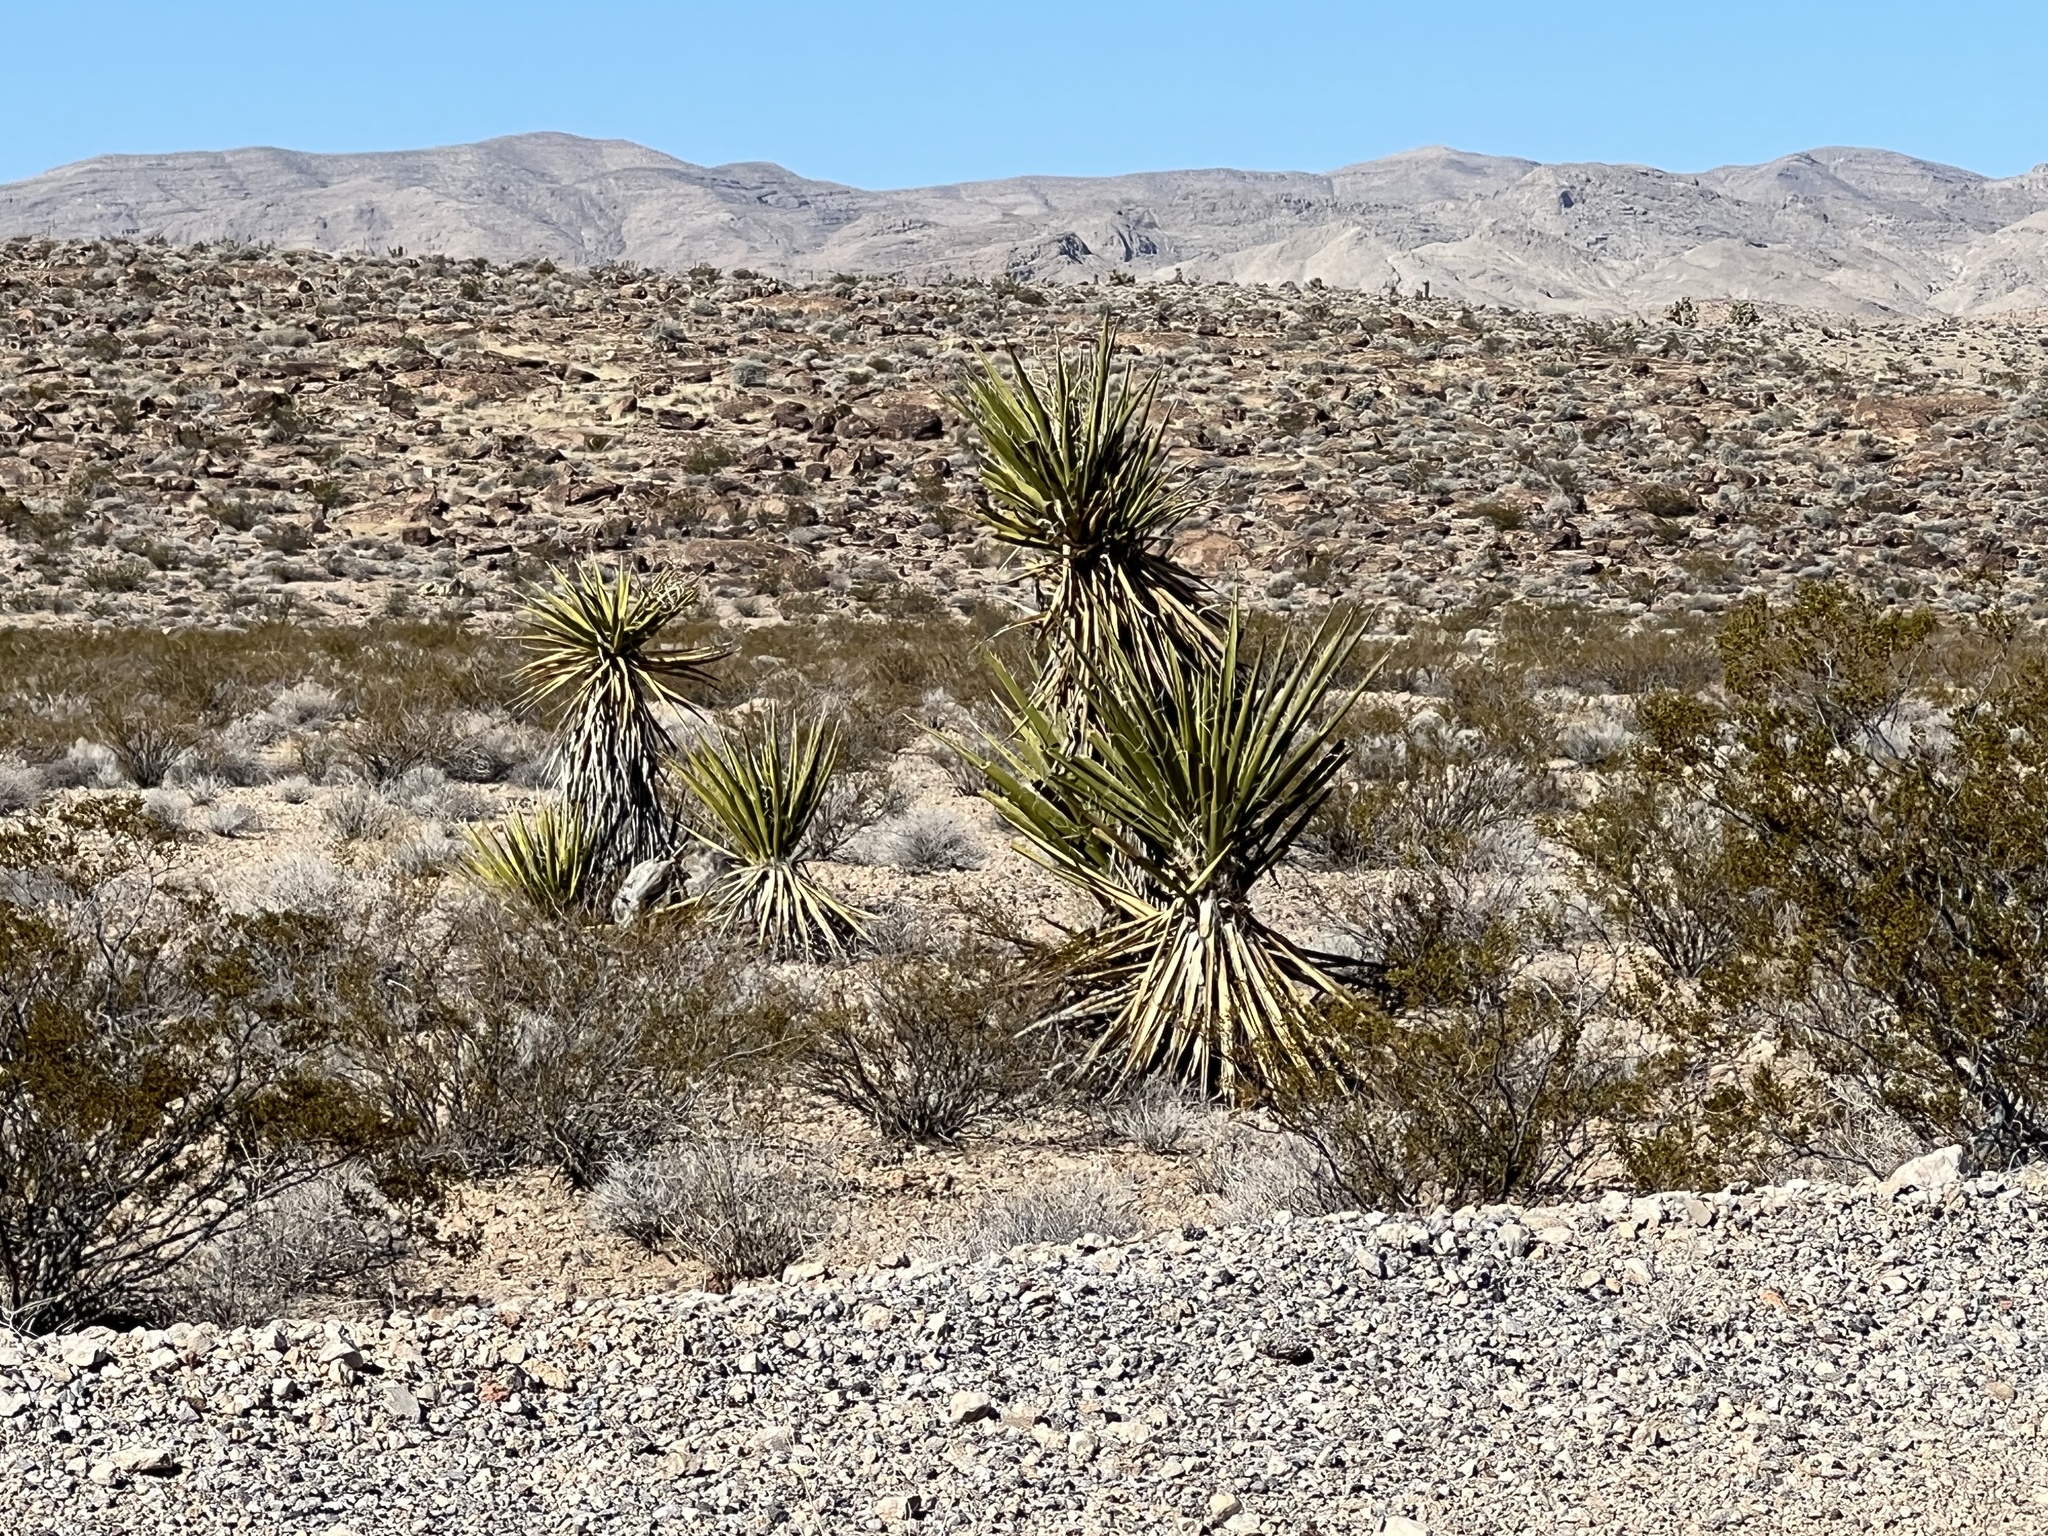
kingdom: Plantae
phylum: Tracheophyta
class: Liliopsida
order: Asparagales
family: Asparagaceae
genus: Yucca
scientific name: Yucca schidigera
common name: Mojave yucca
